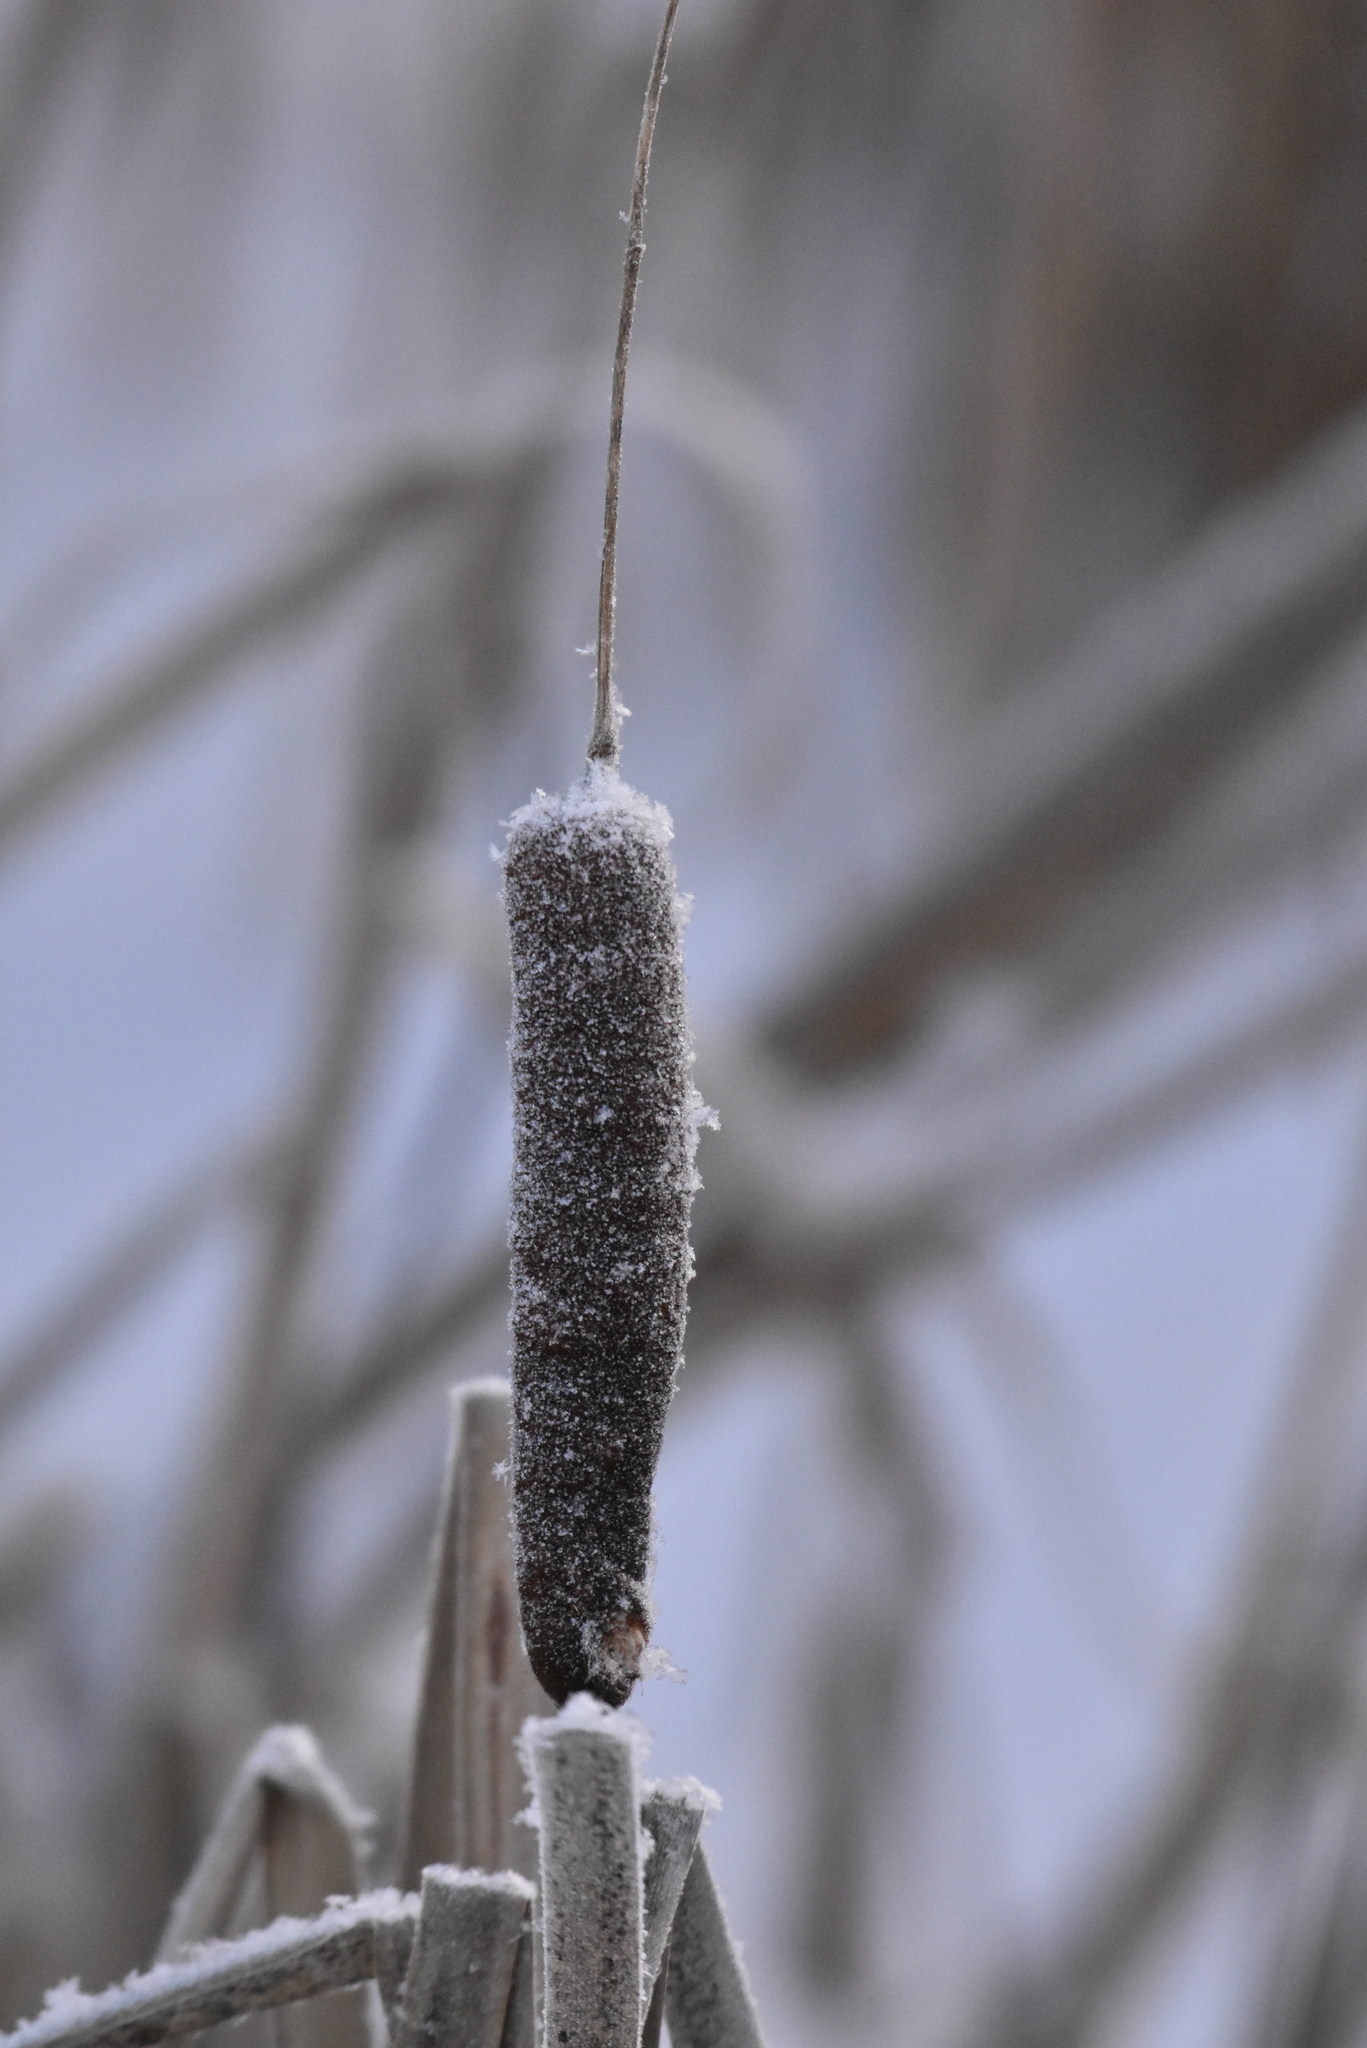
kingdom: Plantae
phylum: Tracheophyta
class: Liliopsida
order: Poales
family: Typhaceae
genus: Typha
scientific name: Typha latifolia
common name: Broadleaf cattail
